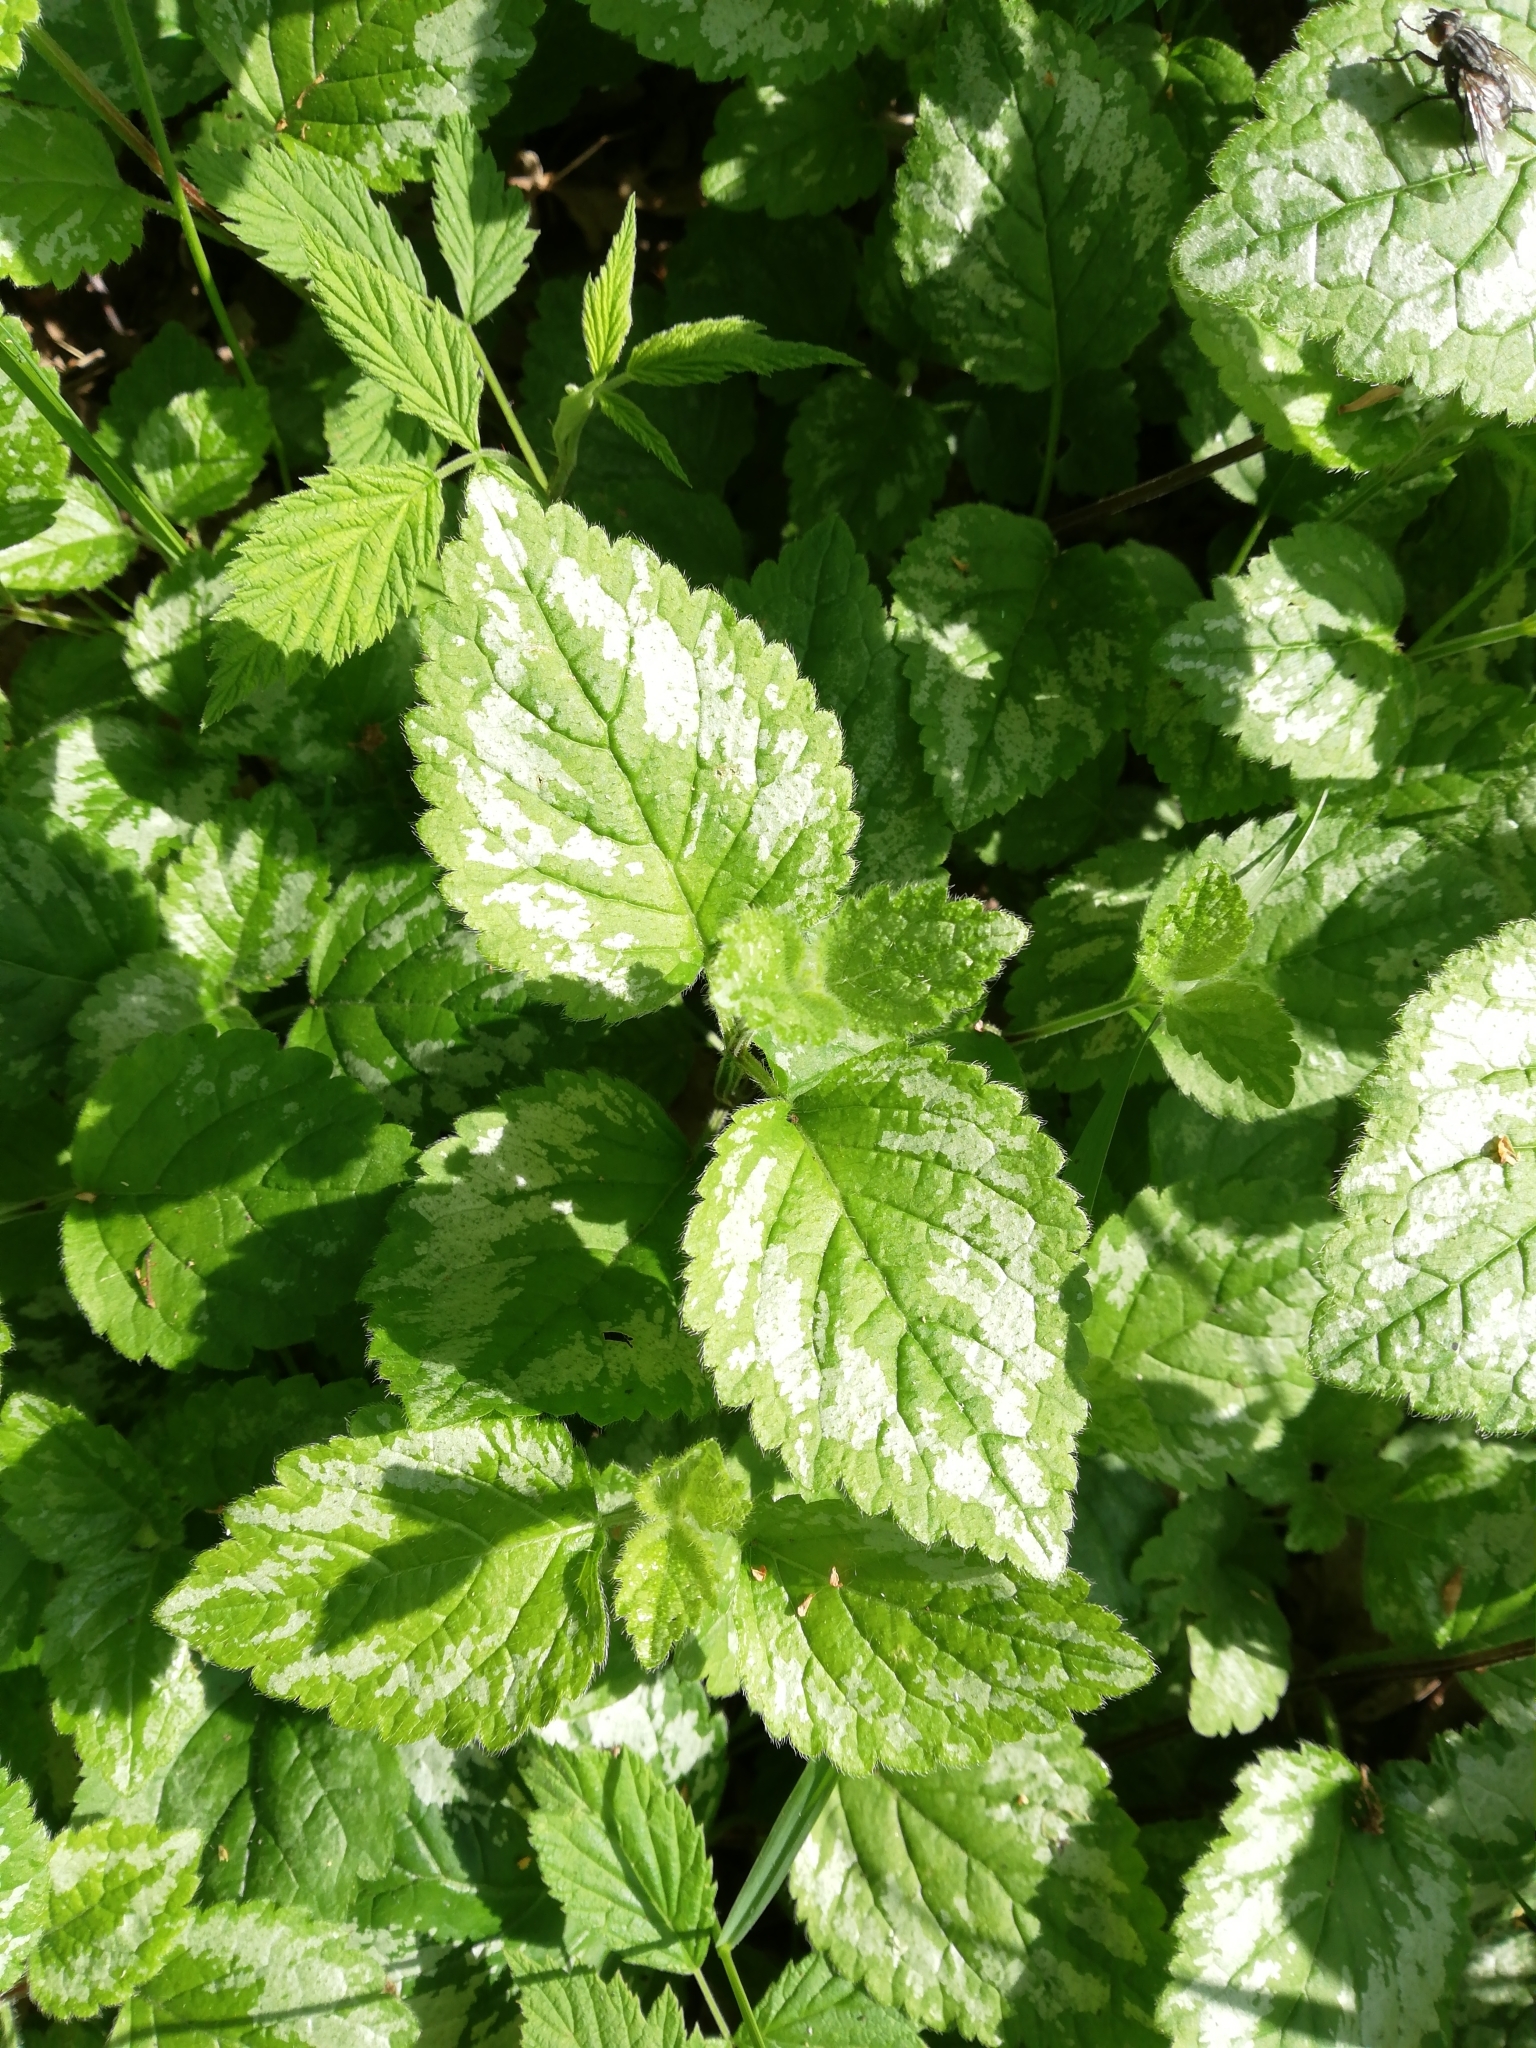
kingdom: Plantae
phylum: Tracheophyta
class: Magnoliopsida
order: Lamiales
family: Lamiaceae
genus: Lamium
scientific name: Lamium galeobdolon
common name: Yellow archangel
